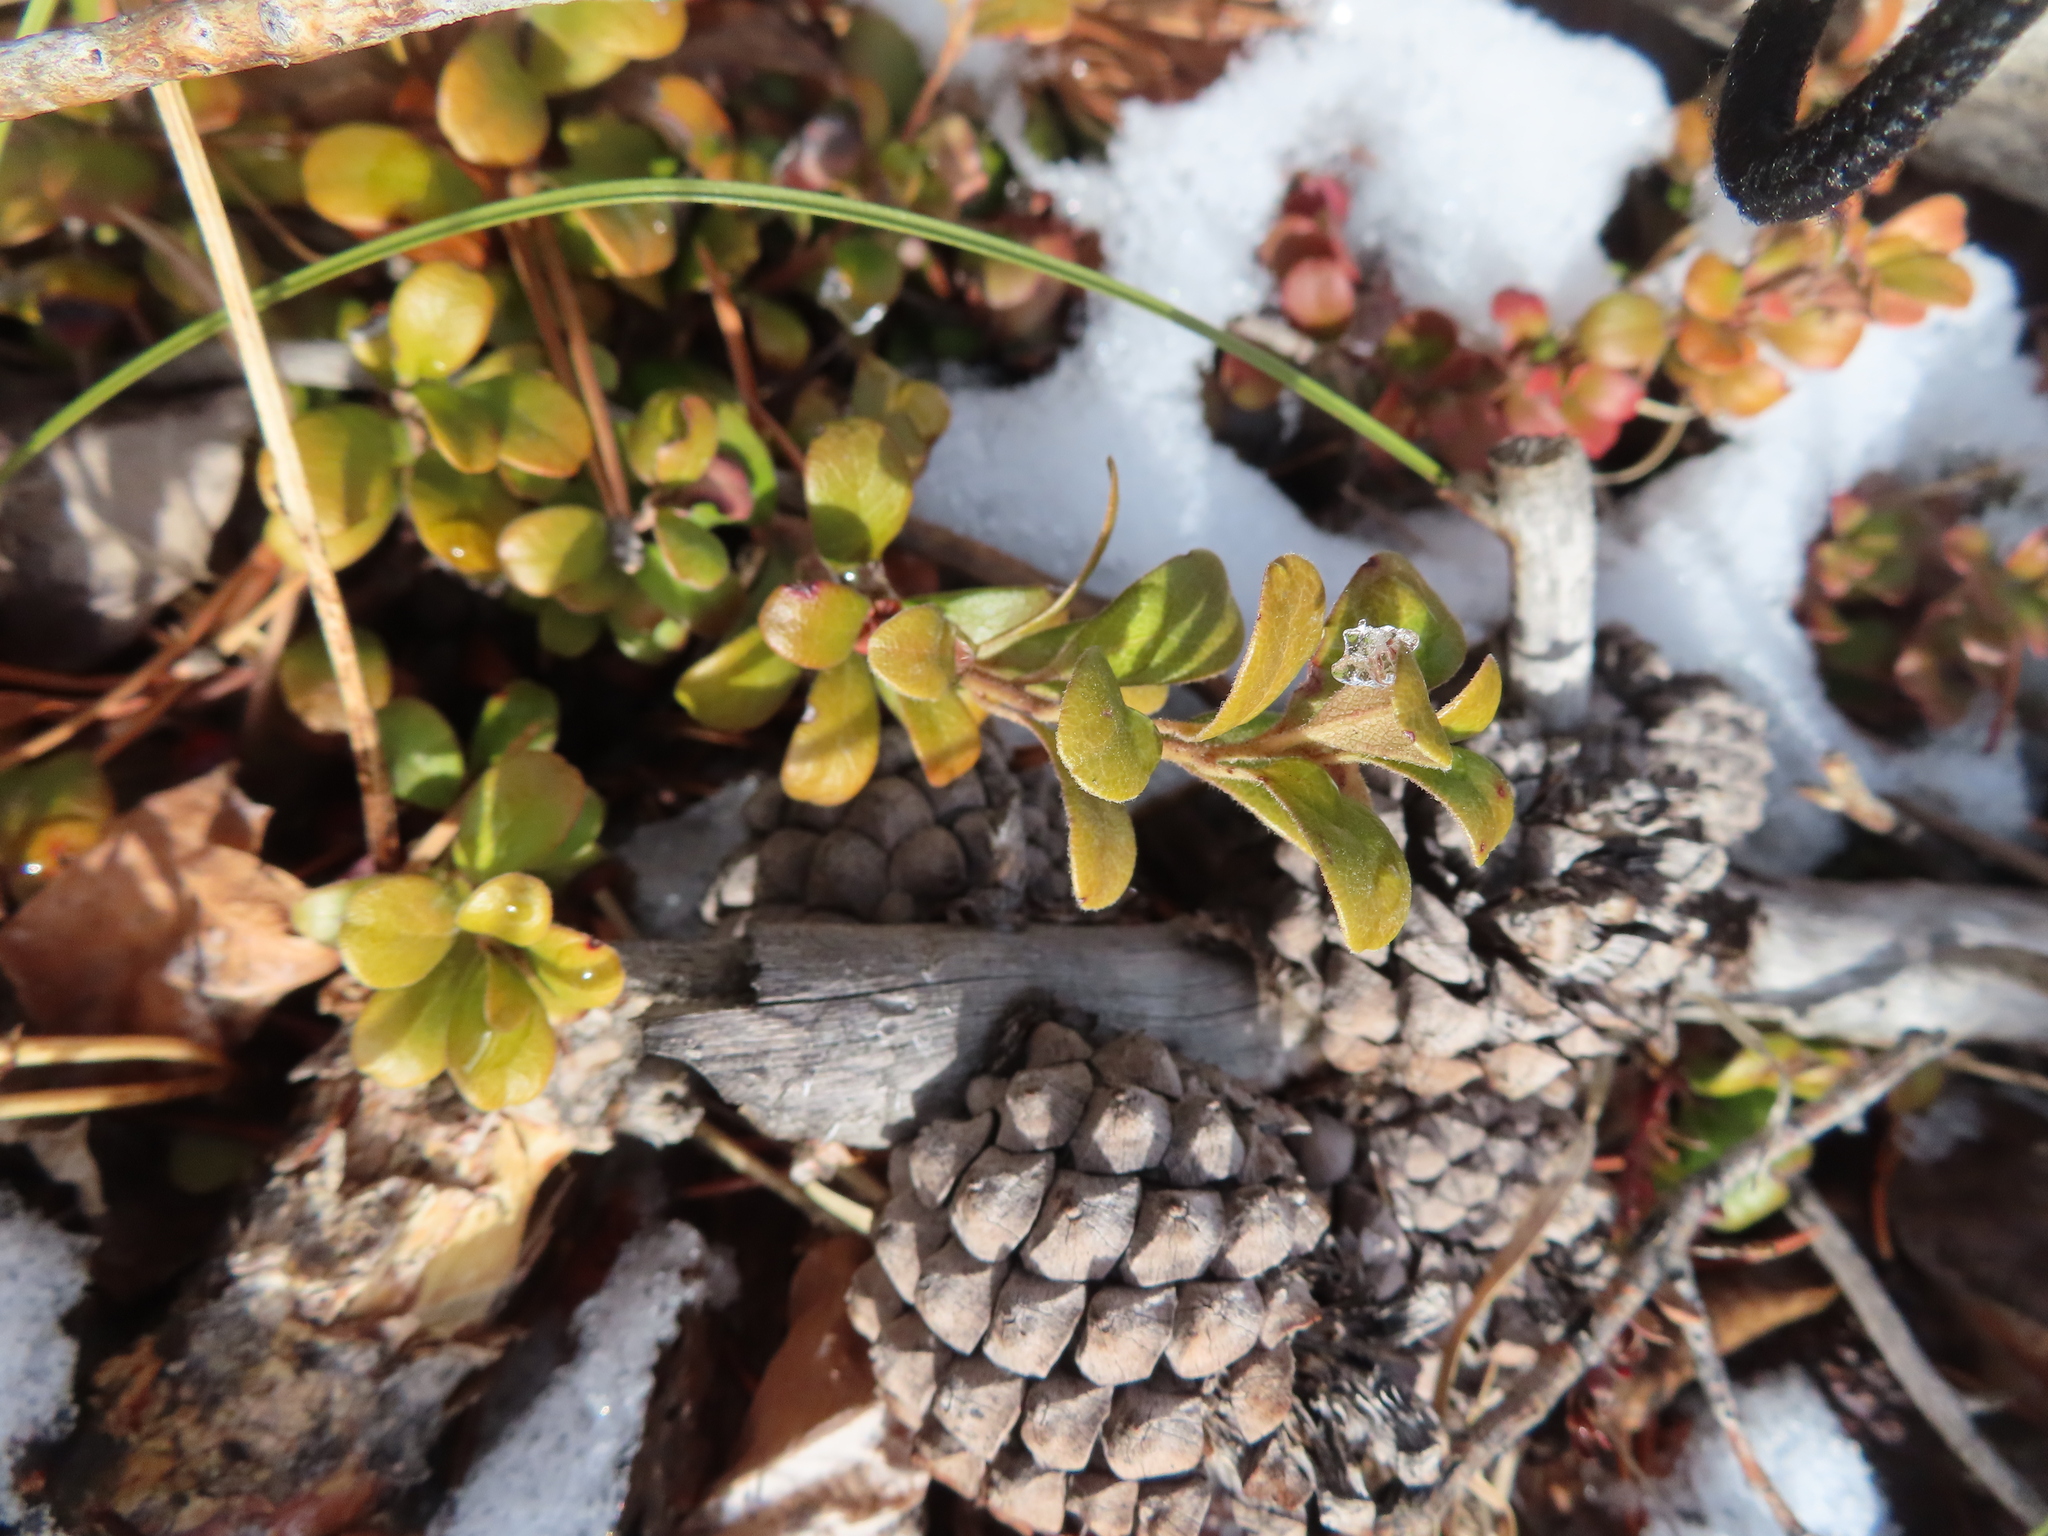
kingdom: Plantae
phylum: Tracheophyta
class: Magnoliopsida
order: Ericales
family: Ericaceae
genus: Arctostaphylos
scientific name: Arctostaphylos uva-ursi
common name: Bearberry
